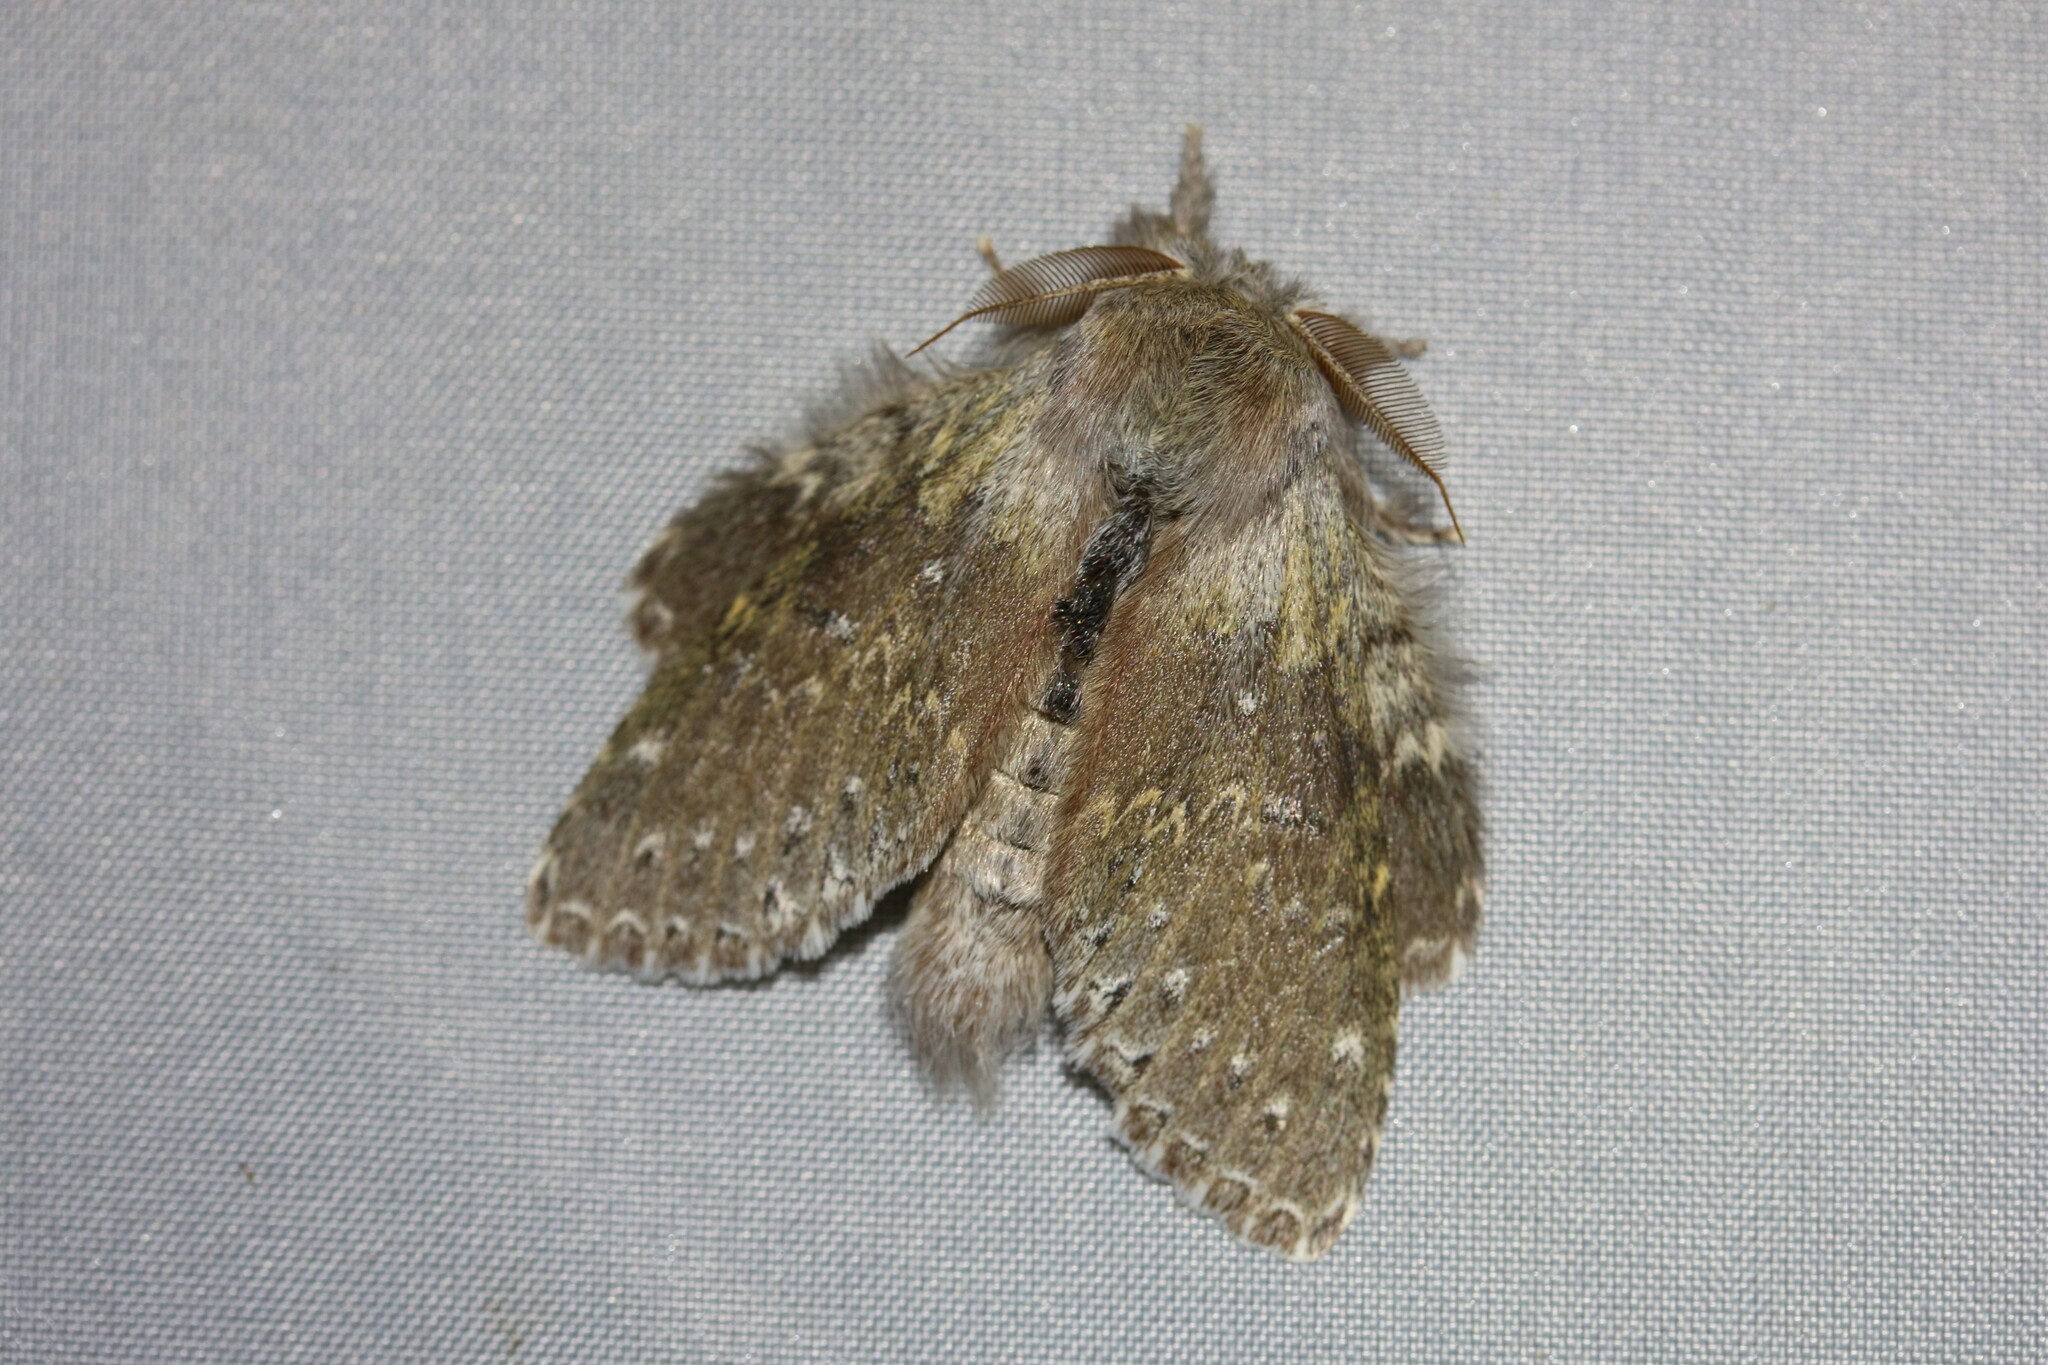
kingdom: Animalia
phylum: Arthropoda
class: Insecta
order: Lepidoptera
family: Notodontidae
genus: Stauropus
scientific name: Stauropus fagi
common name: Lobster moth
